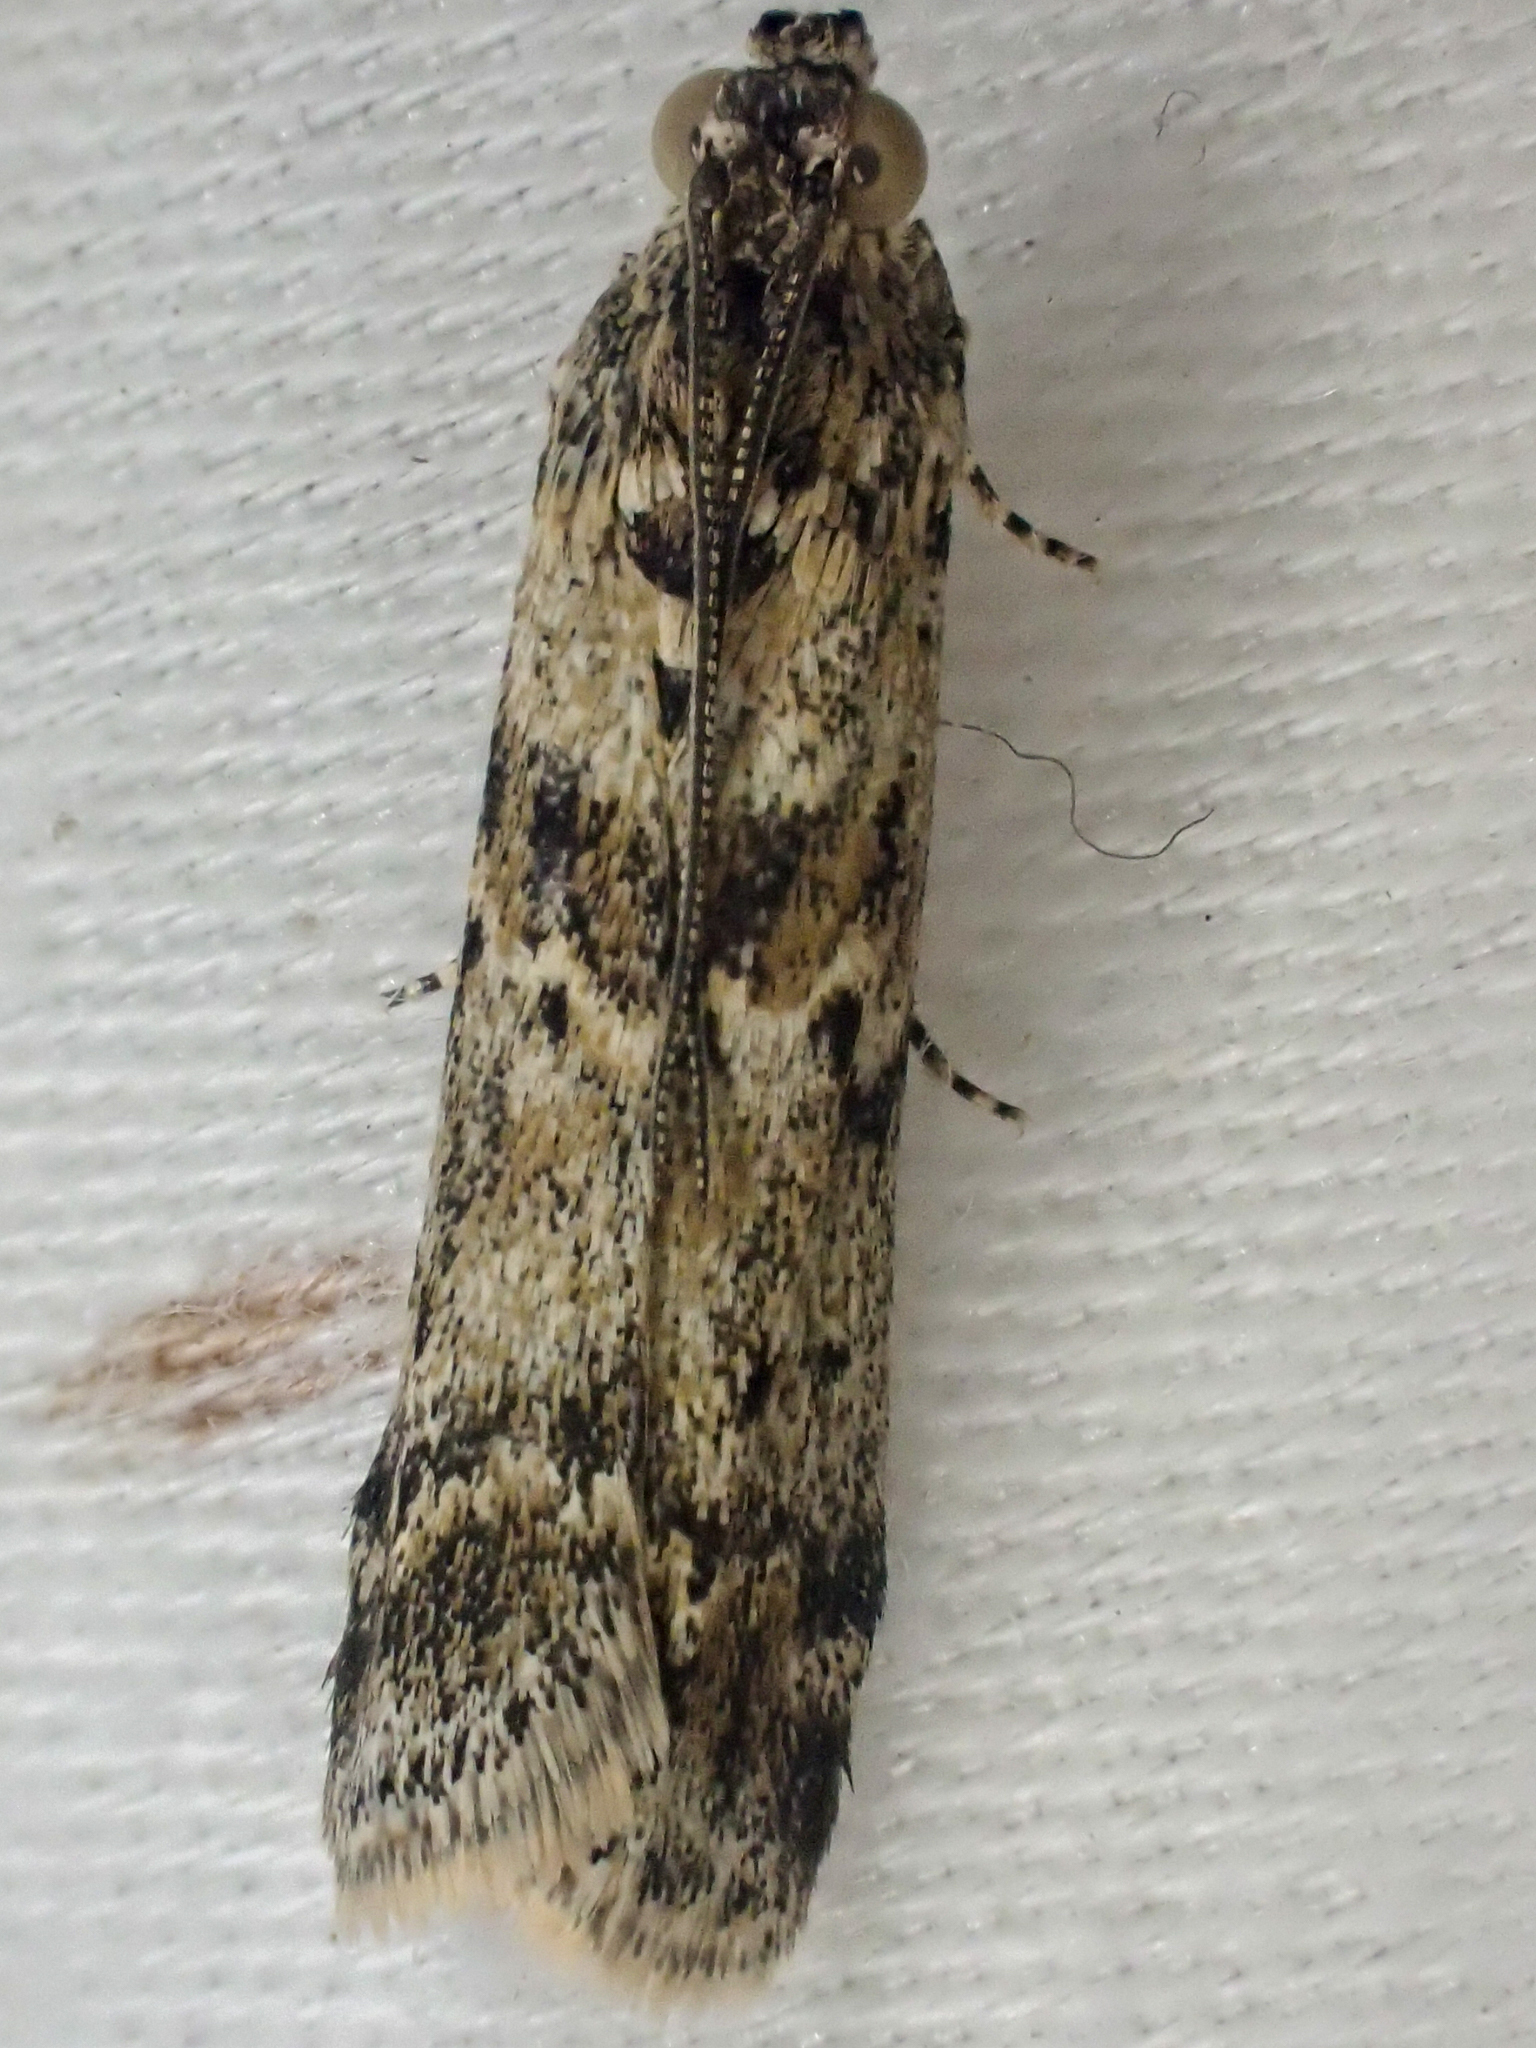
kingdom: Animalia
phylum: Arthropoda
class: Insecta
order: Lepidoptera
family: Pyralidae
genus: Ancylosis
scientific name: Ancylosis undulatella
